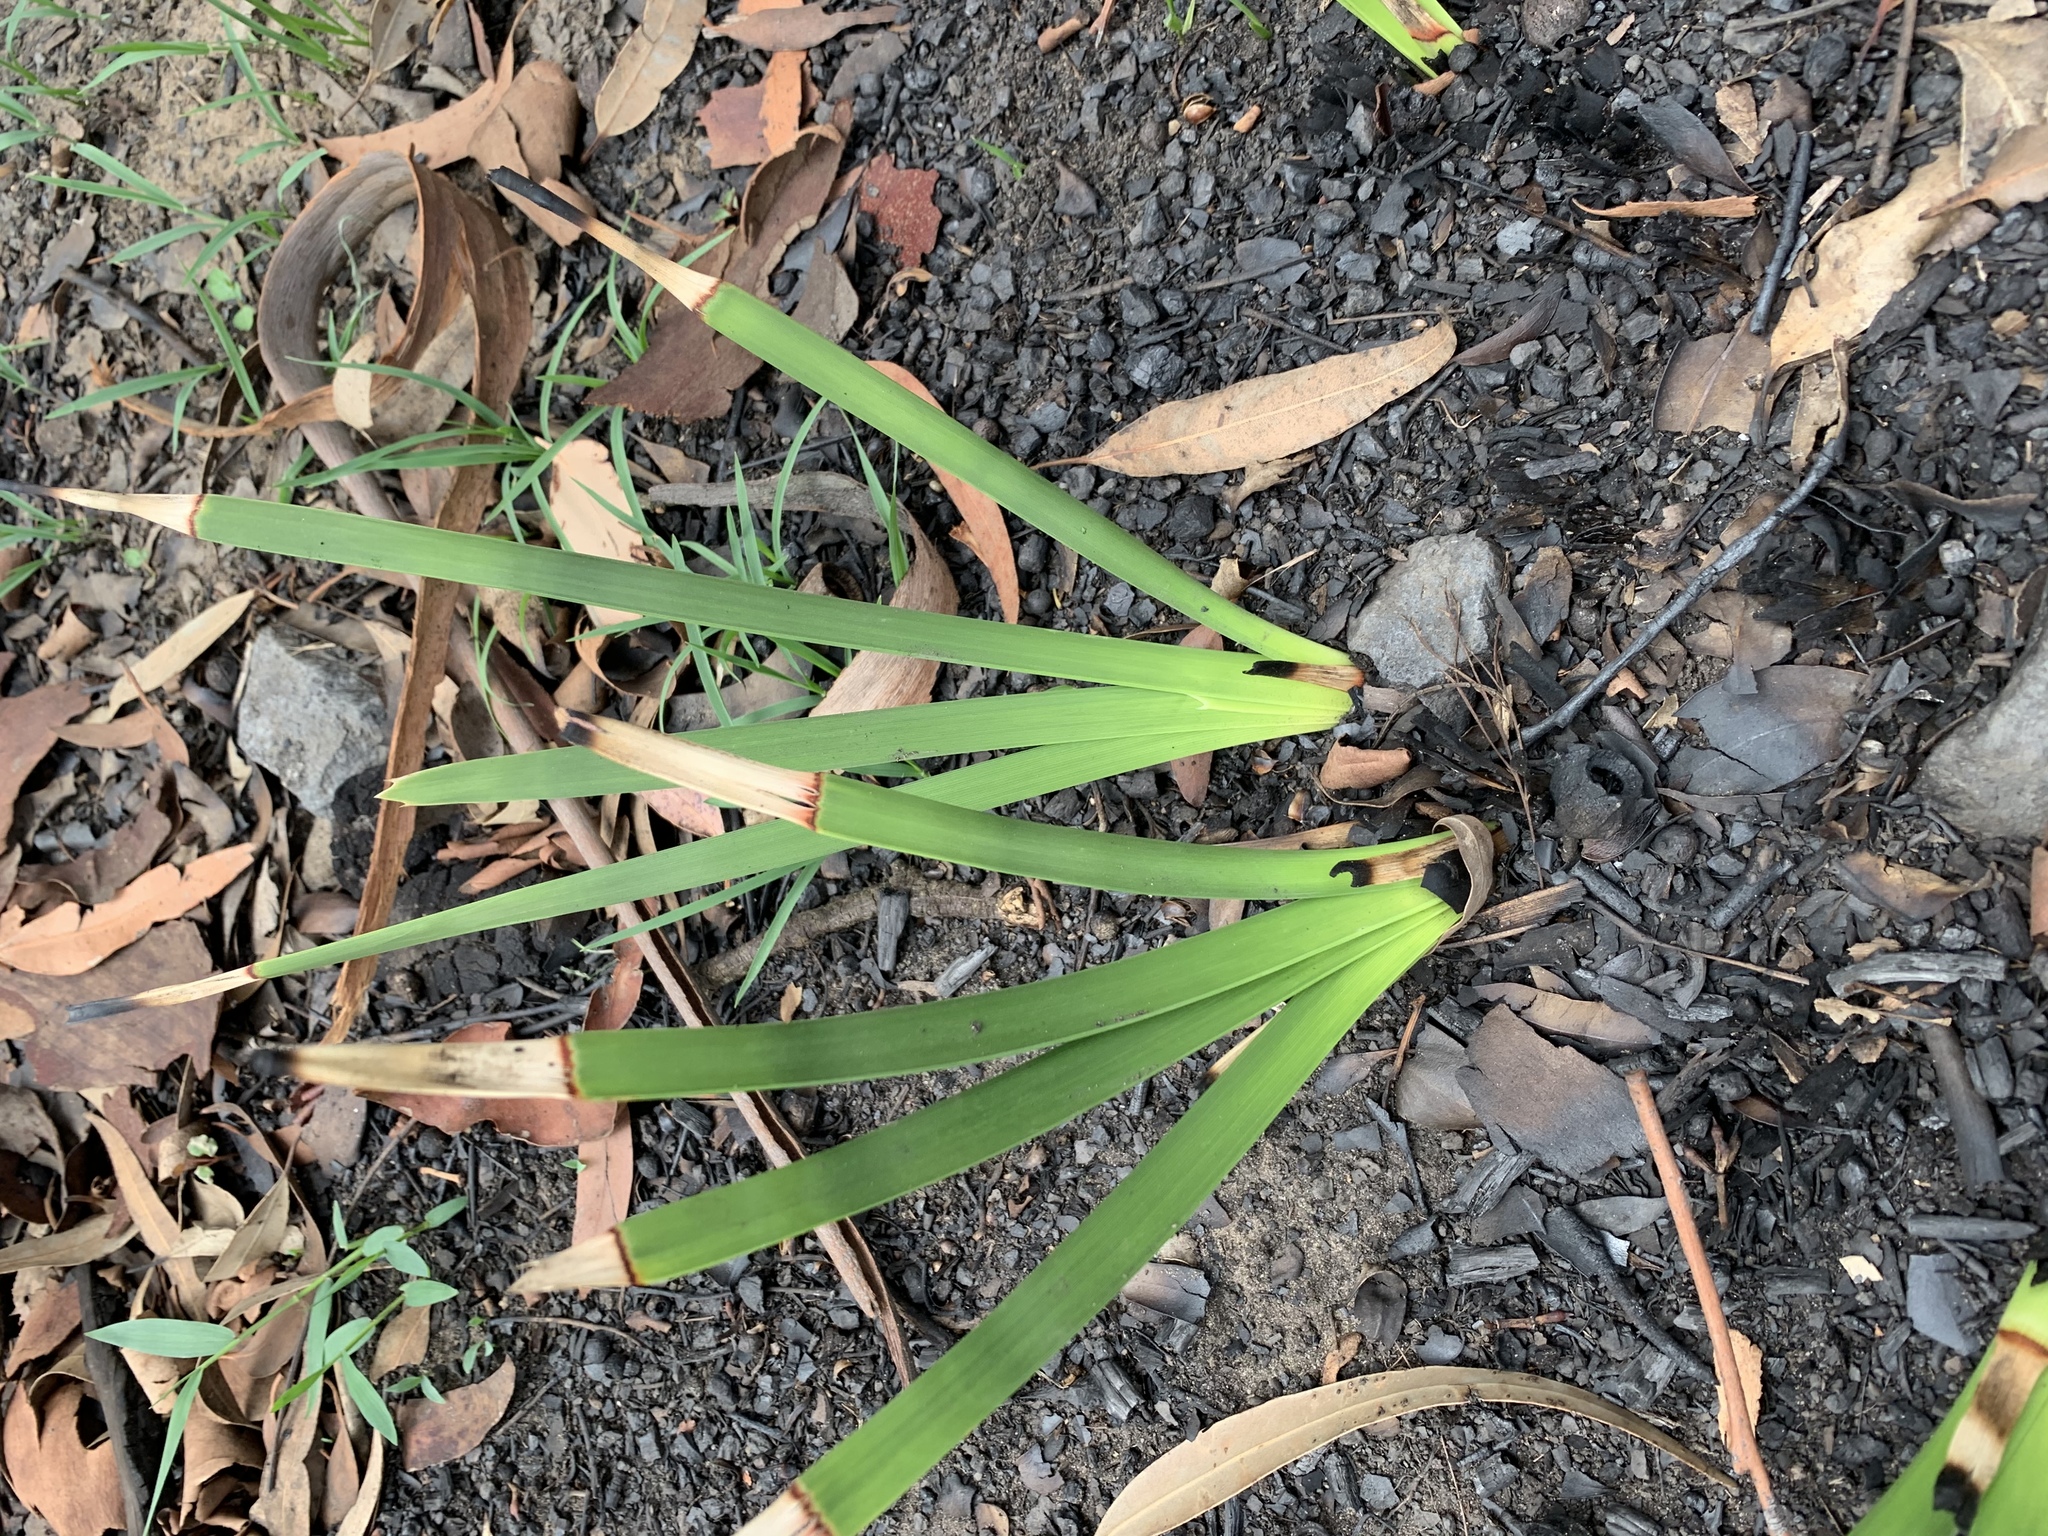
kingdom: Plantae
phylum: Tracheophyta
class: Liliopsida
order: Asparagales
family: Asparagaceae
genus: Lomandra
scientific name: Lomandra longifolia
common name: Longleaf mat-rush
